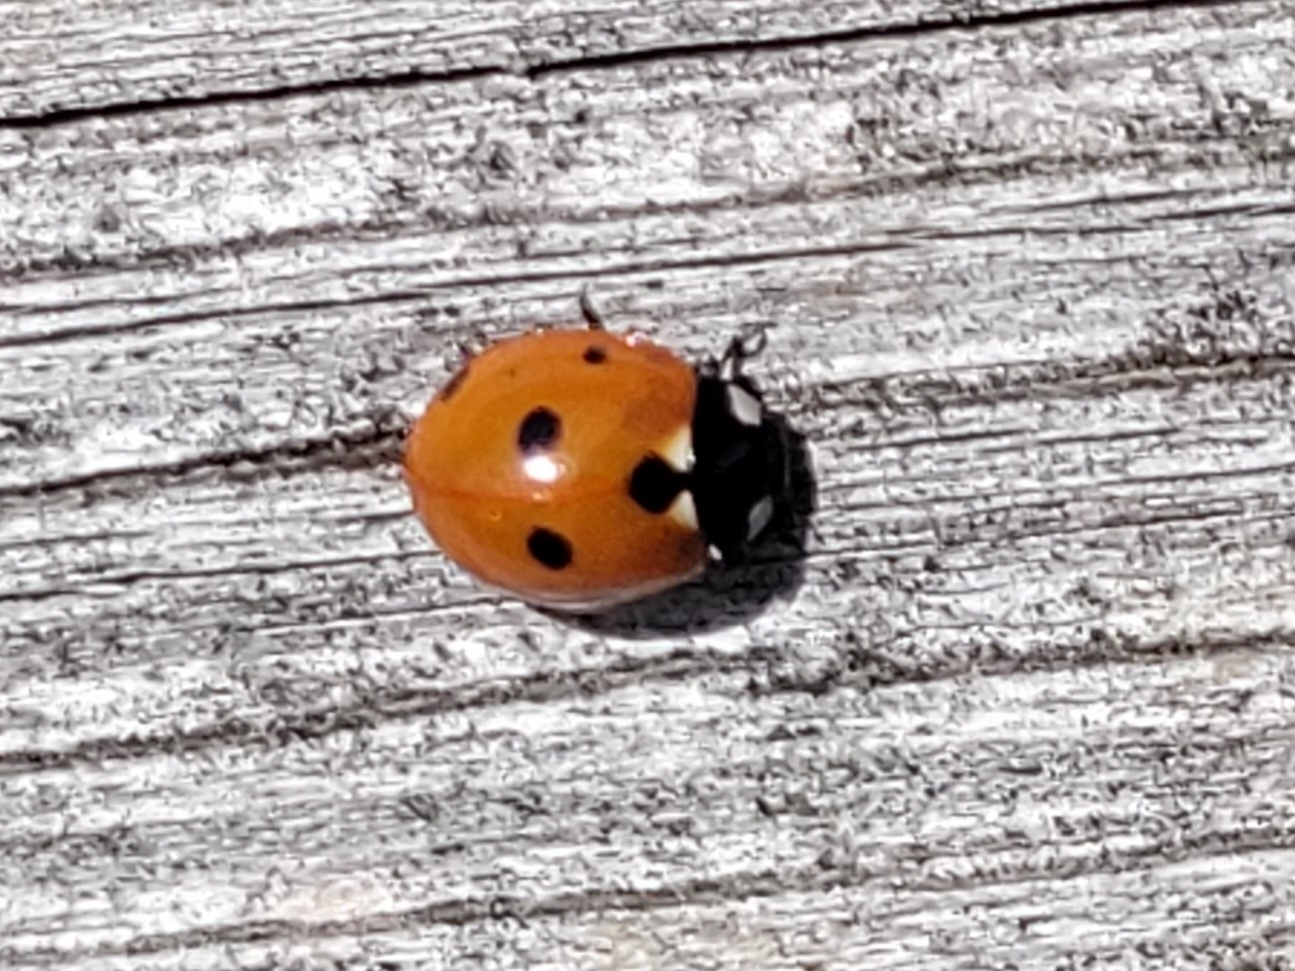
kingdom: Animalia
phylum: Arthropoda
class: Insecta
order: Coleoptera
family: Coccinellidae
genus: Coccinella
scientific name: Coccinella septempunctata
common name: Sevenspotted lady beetle
